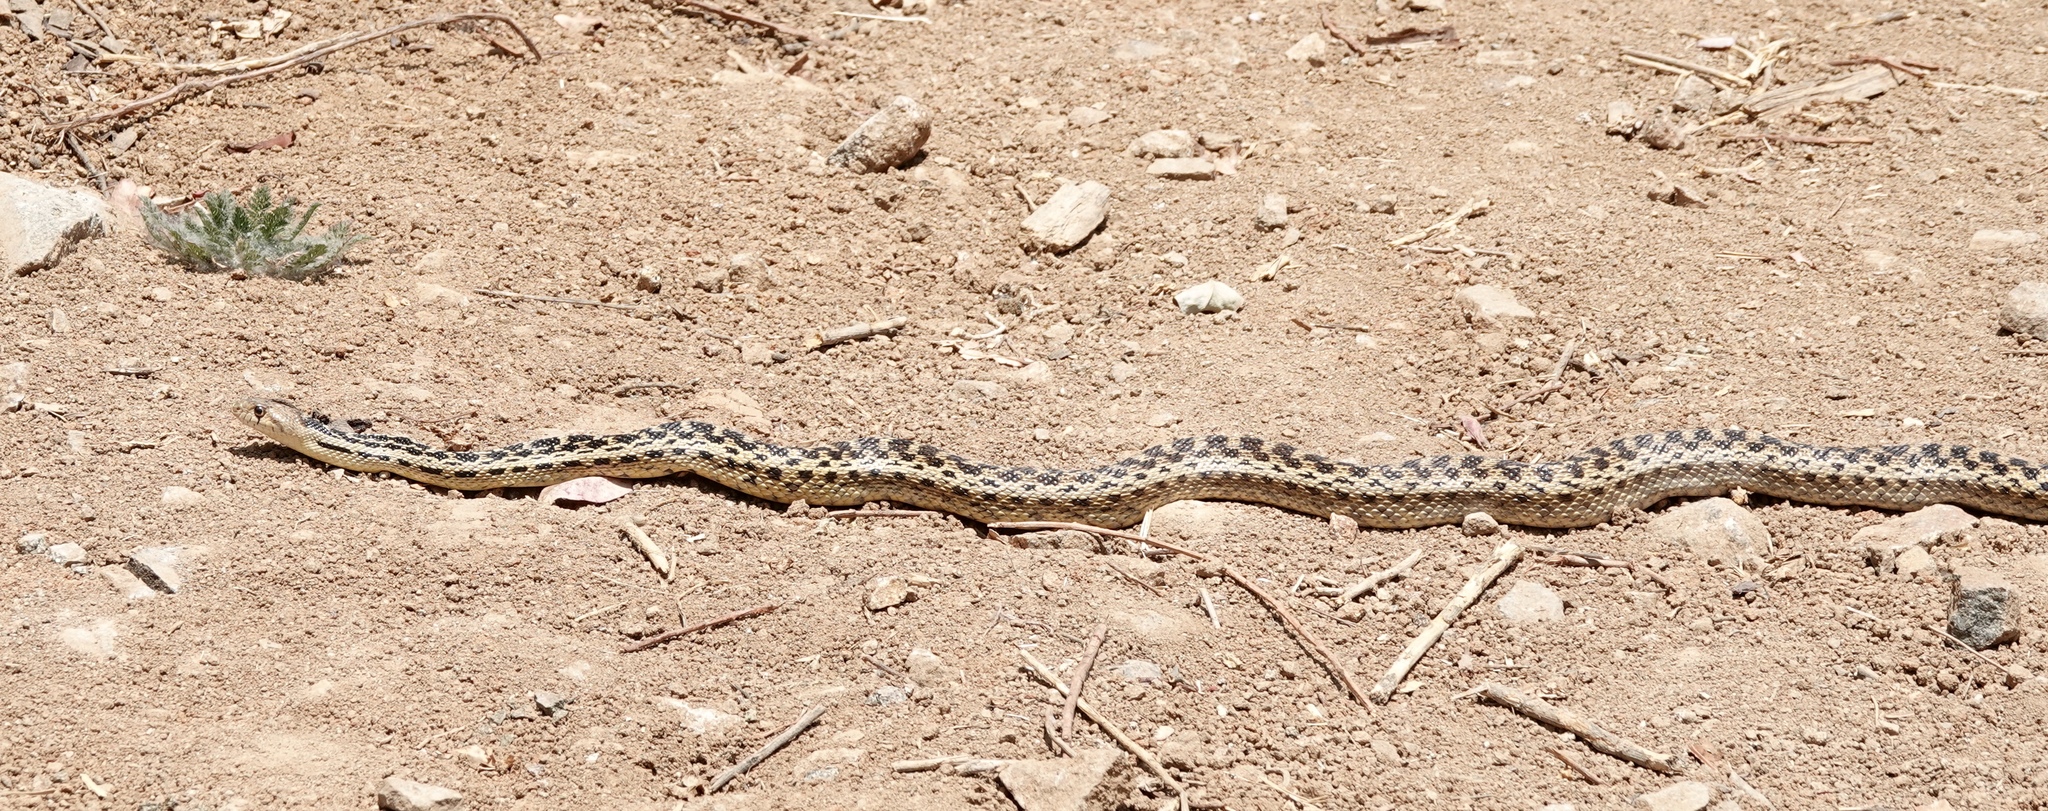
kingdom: Animalia
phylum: Chordata
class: Squamata
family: Colubridae
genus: Pituophis
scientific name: Pituophis catenifer
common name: Gopher snake
